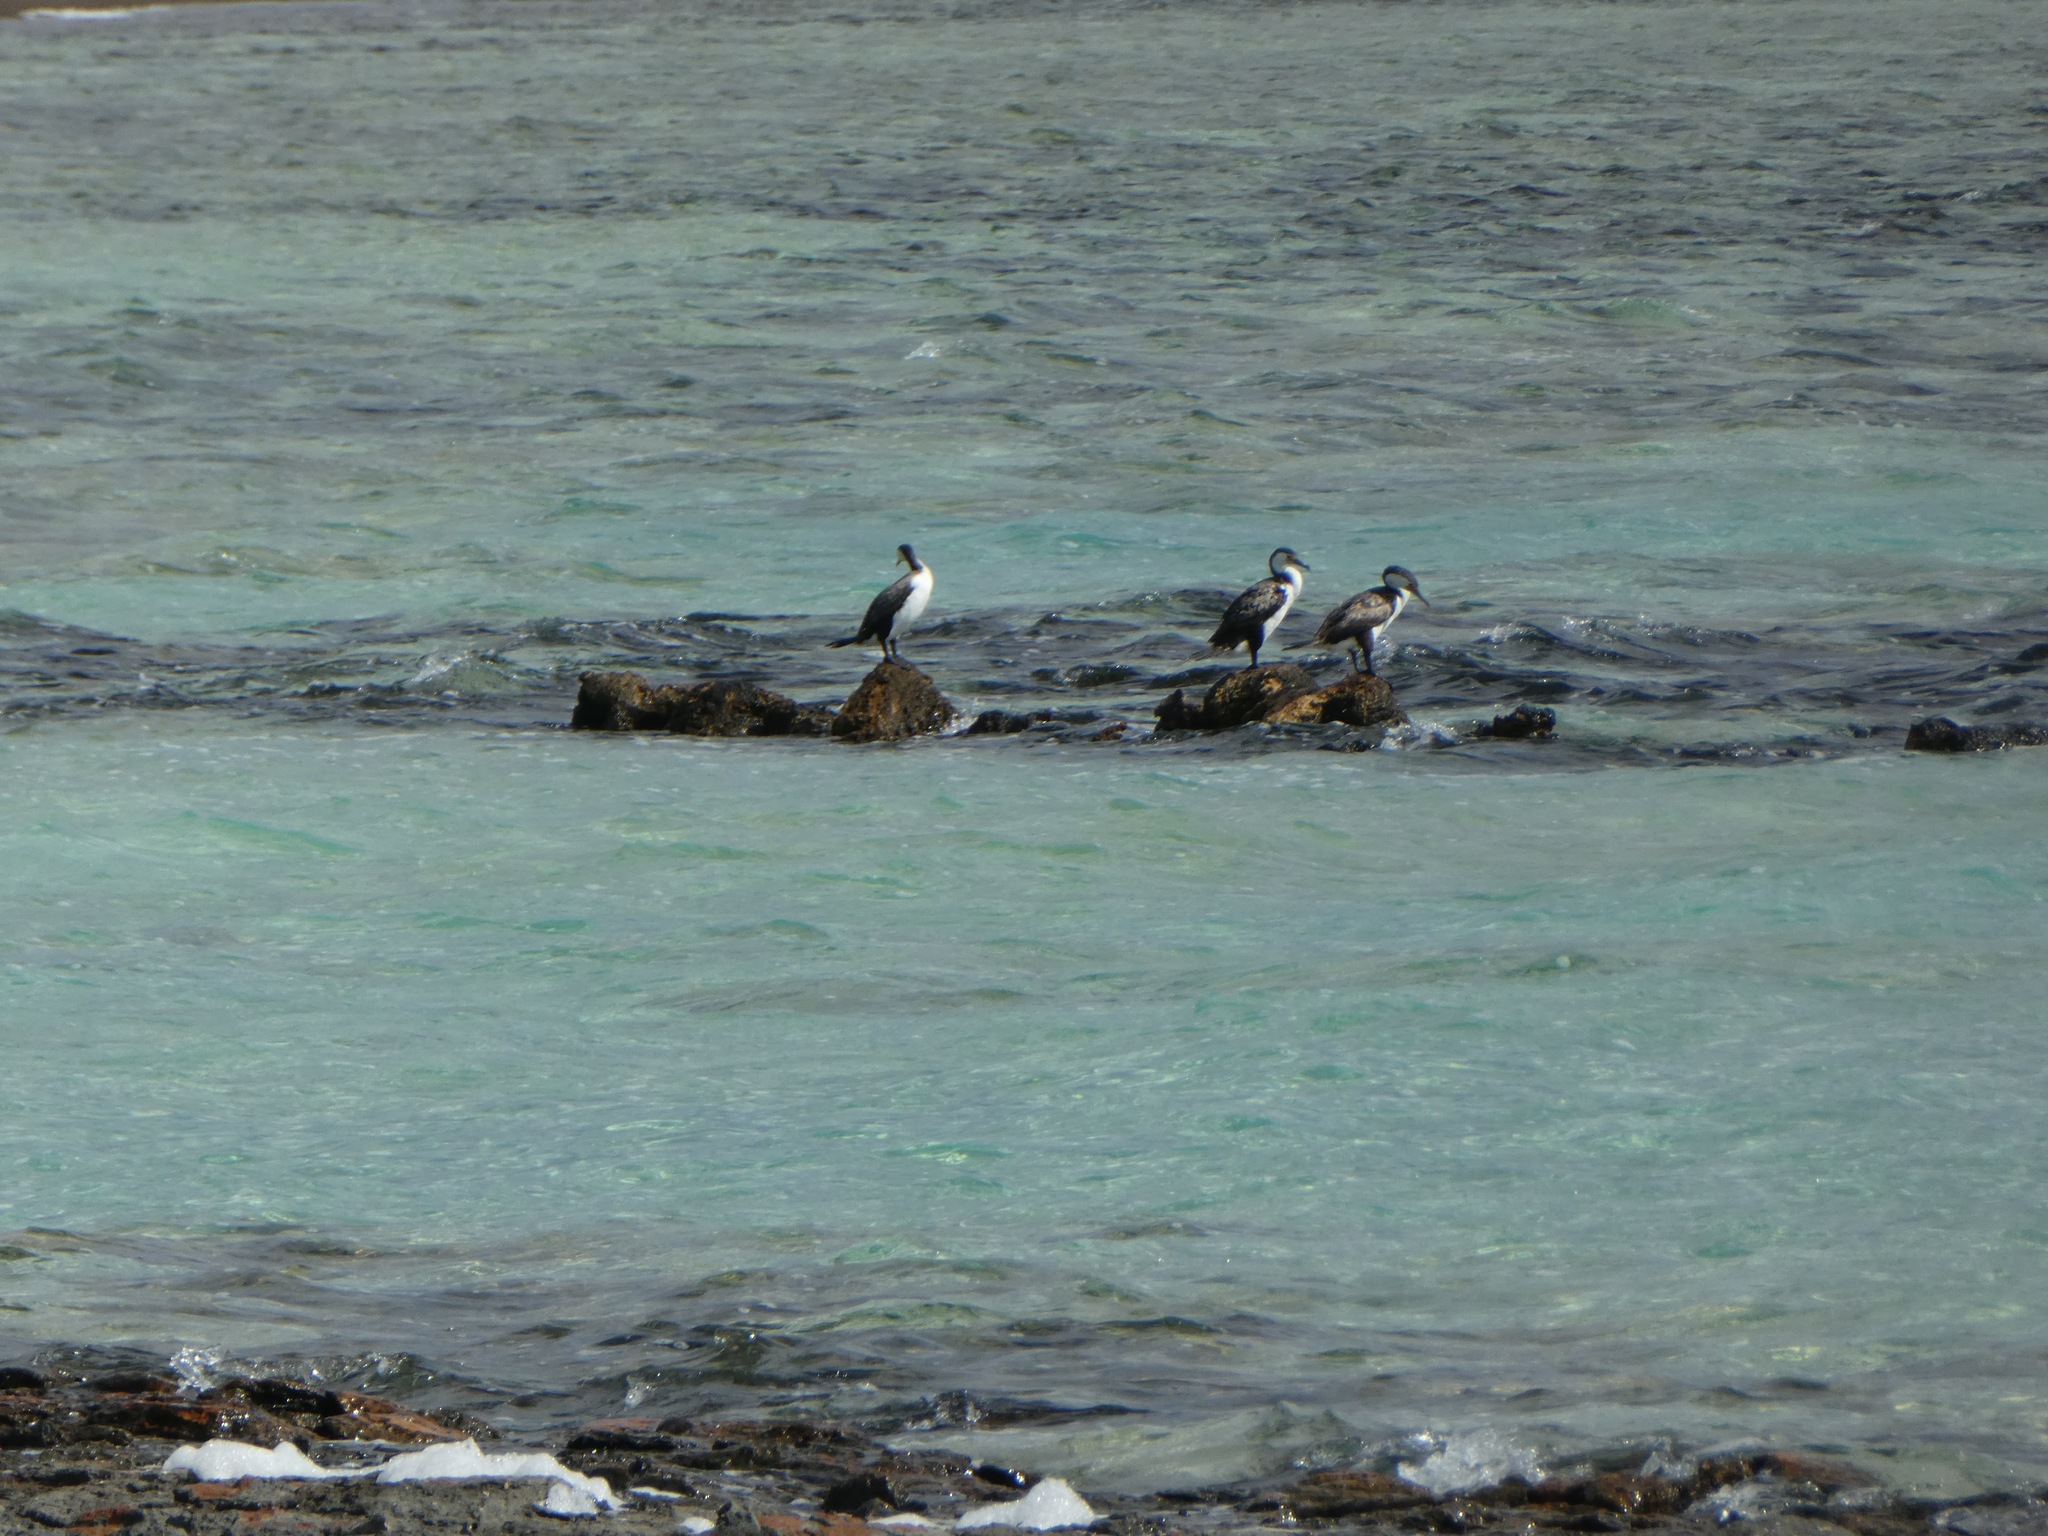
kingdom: Animalia
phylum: Chordata
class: Aves
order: Suliformes
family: Phalacrocoracidae
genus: Phalacrocorax
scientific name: Phalacrocorax varius
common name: Pied cormorant
